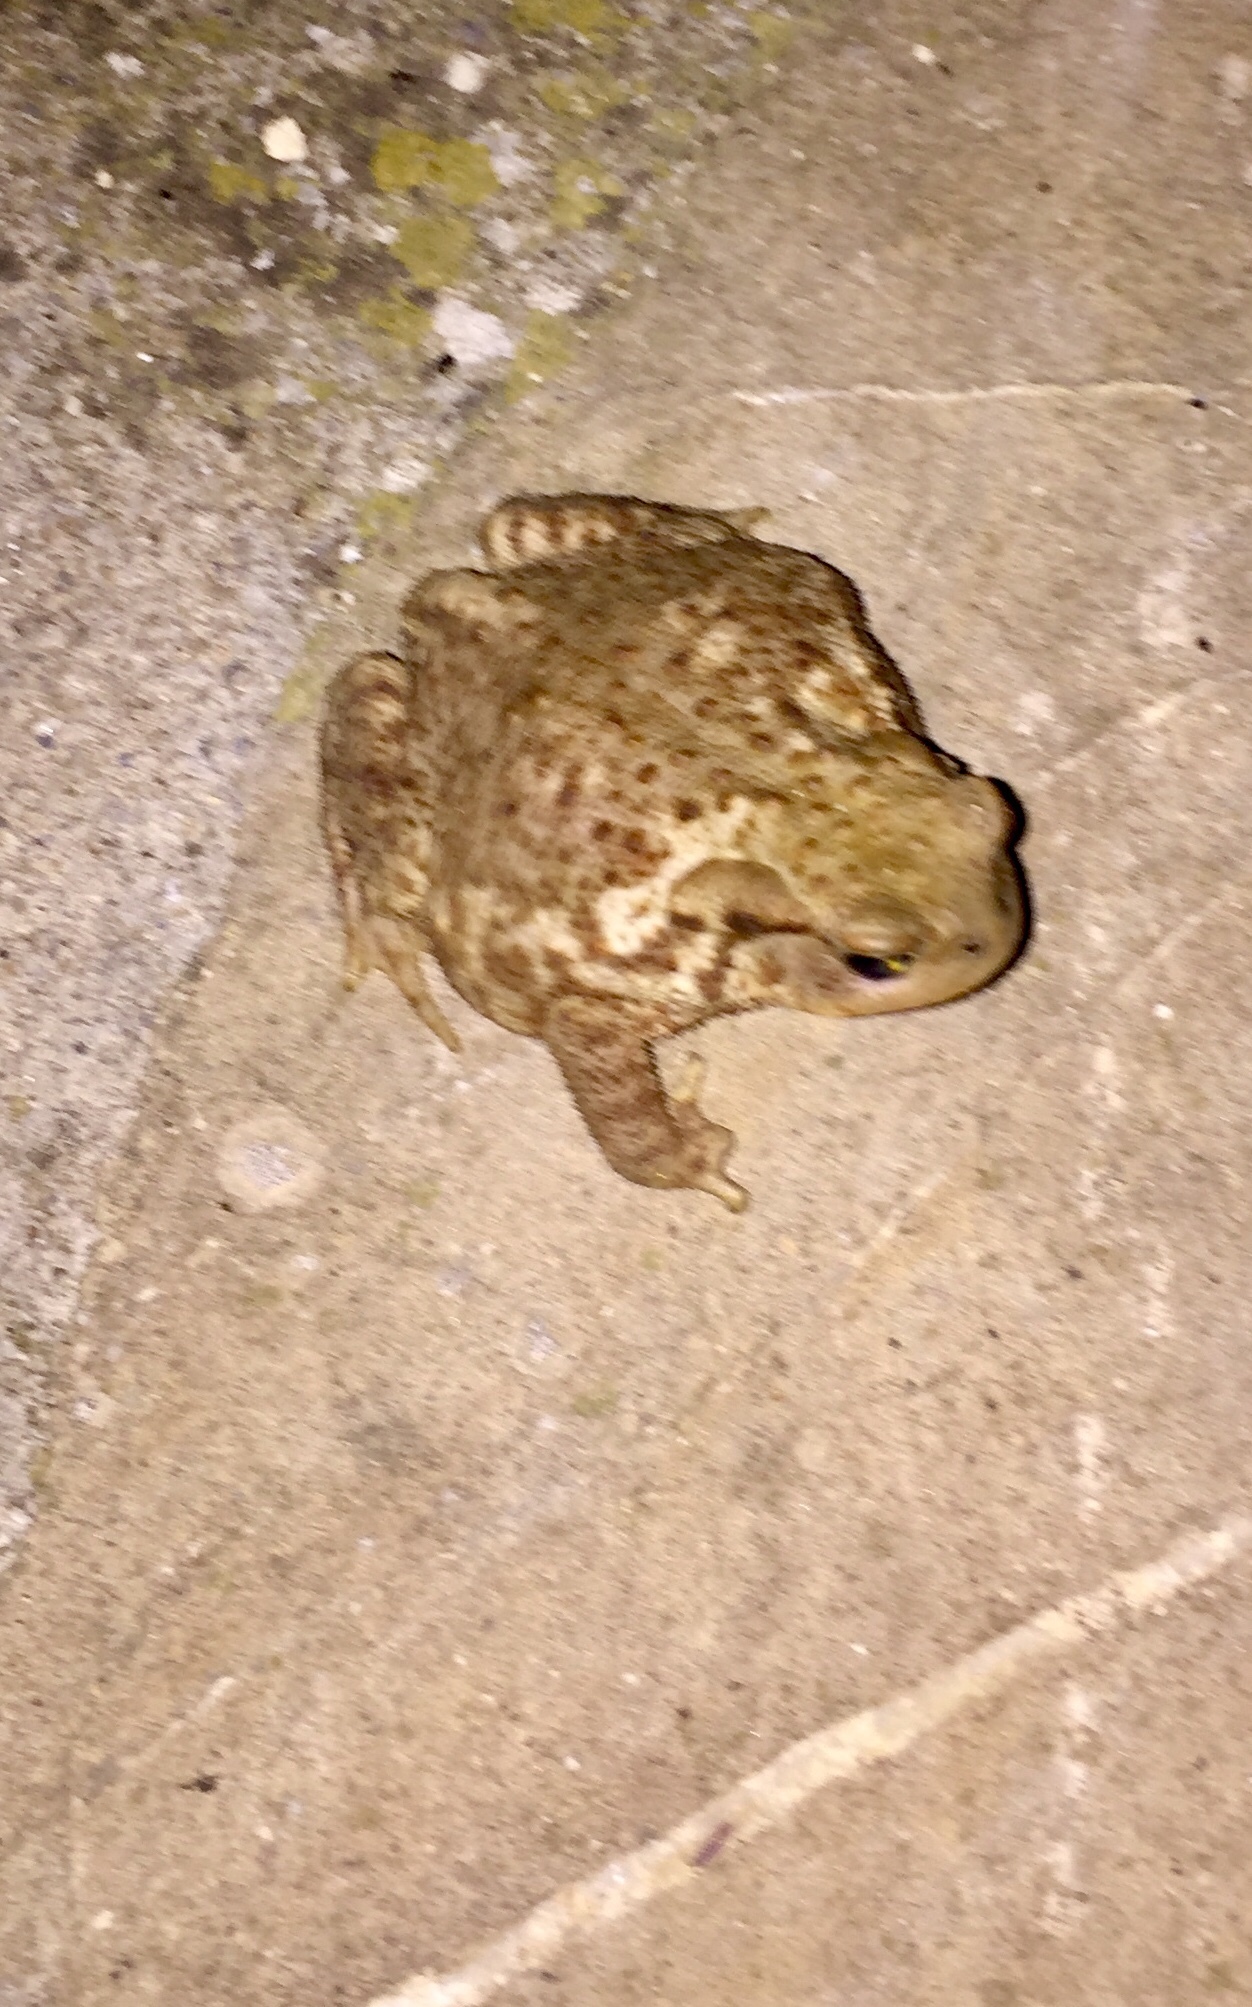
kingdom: Animalia
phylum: Chordata
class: Amphibia
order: Anura
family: Bufonidae
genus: Bufo
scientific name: Bufo bufo
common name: Common toad
